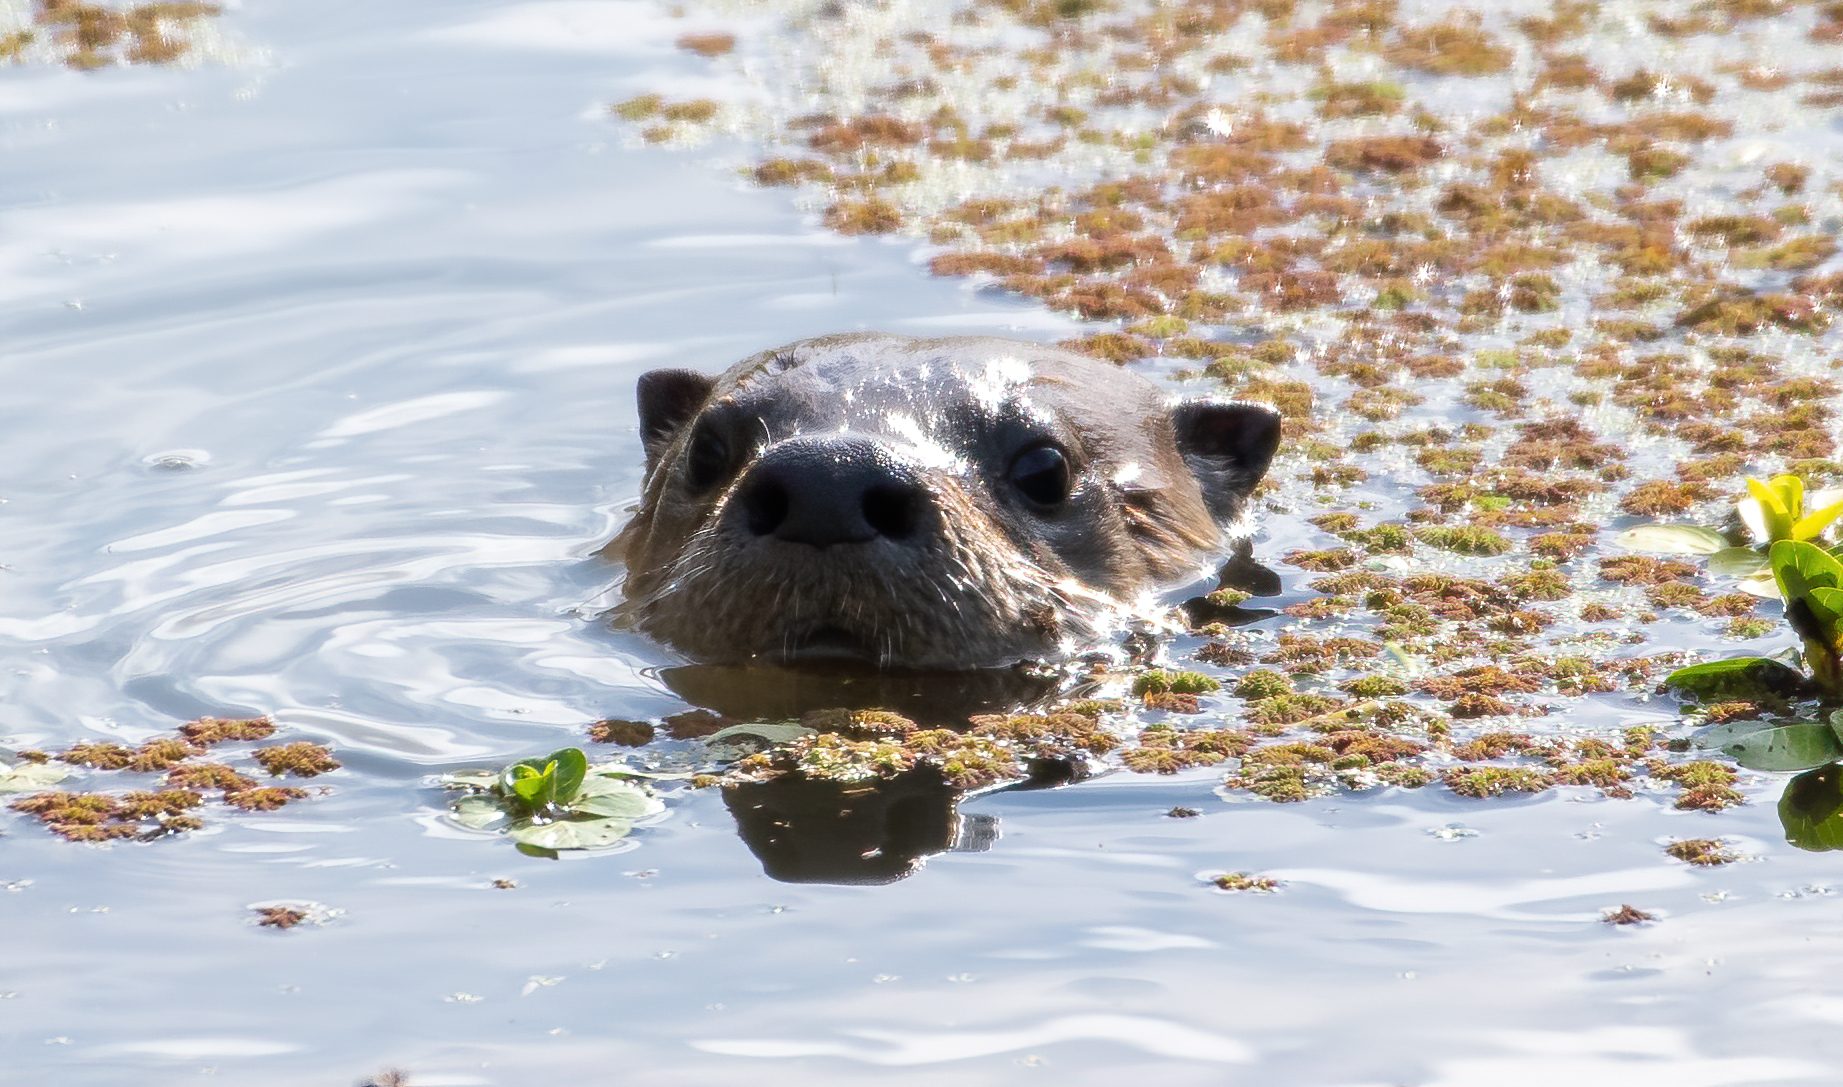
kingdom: Animalia
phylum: Chordata
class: Mammalia
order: Carnivora
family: Mustelidae
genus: Lontra
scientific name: Lontra canadensis
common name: North american river otter
